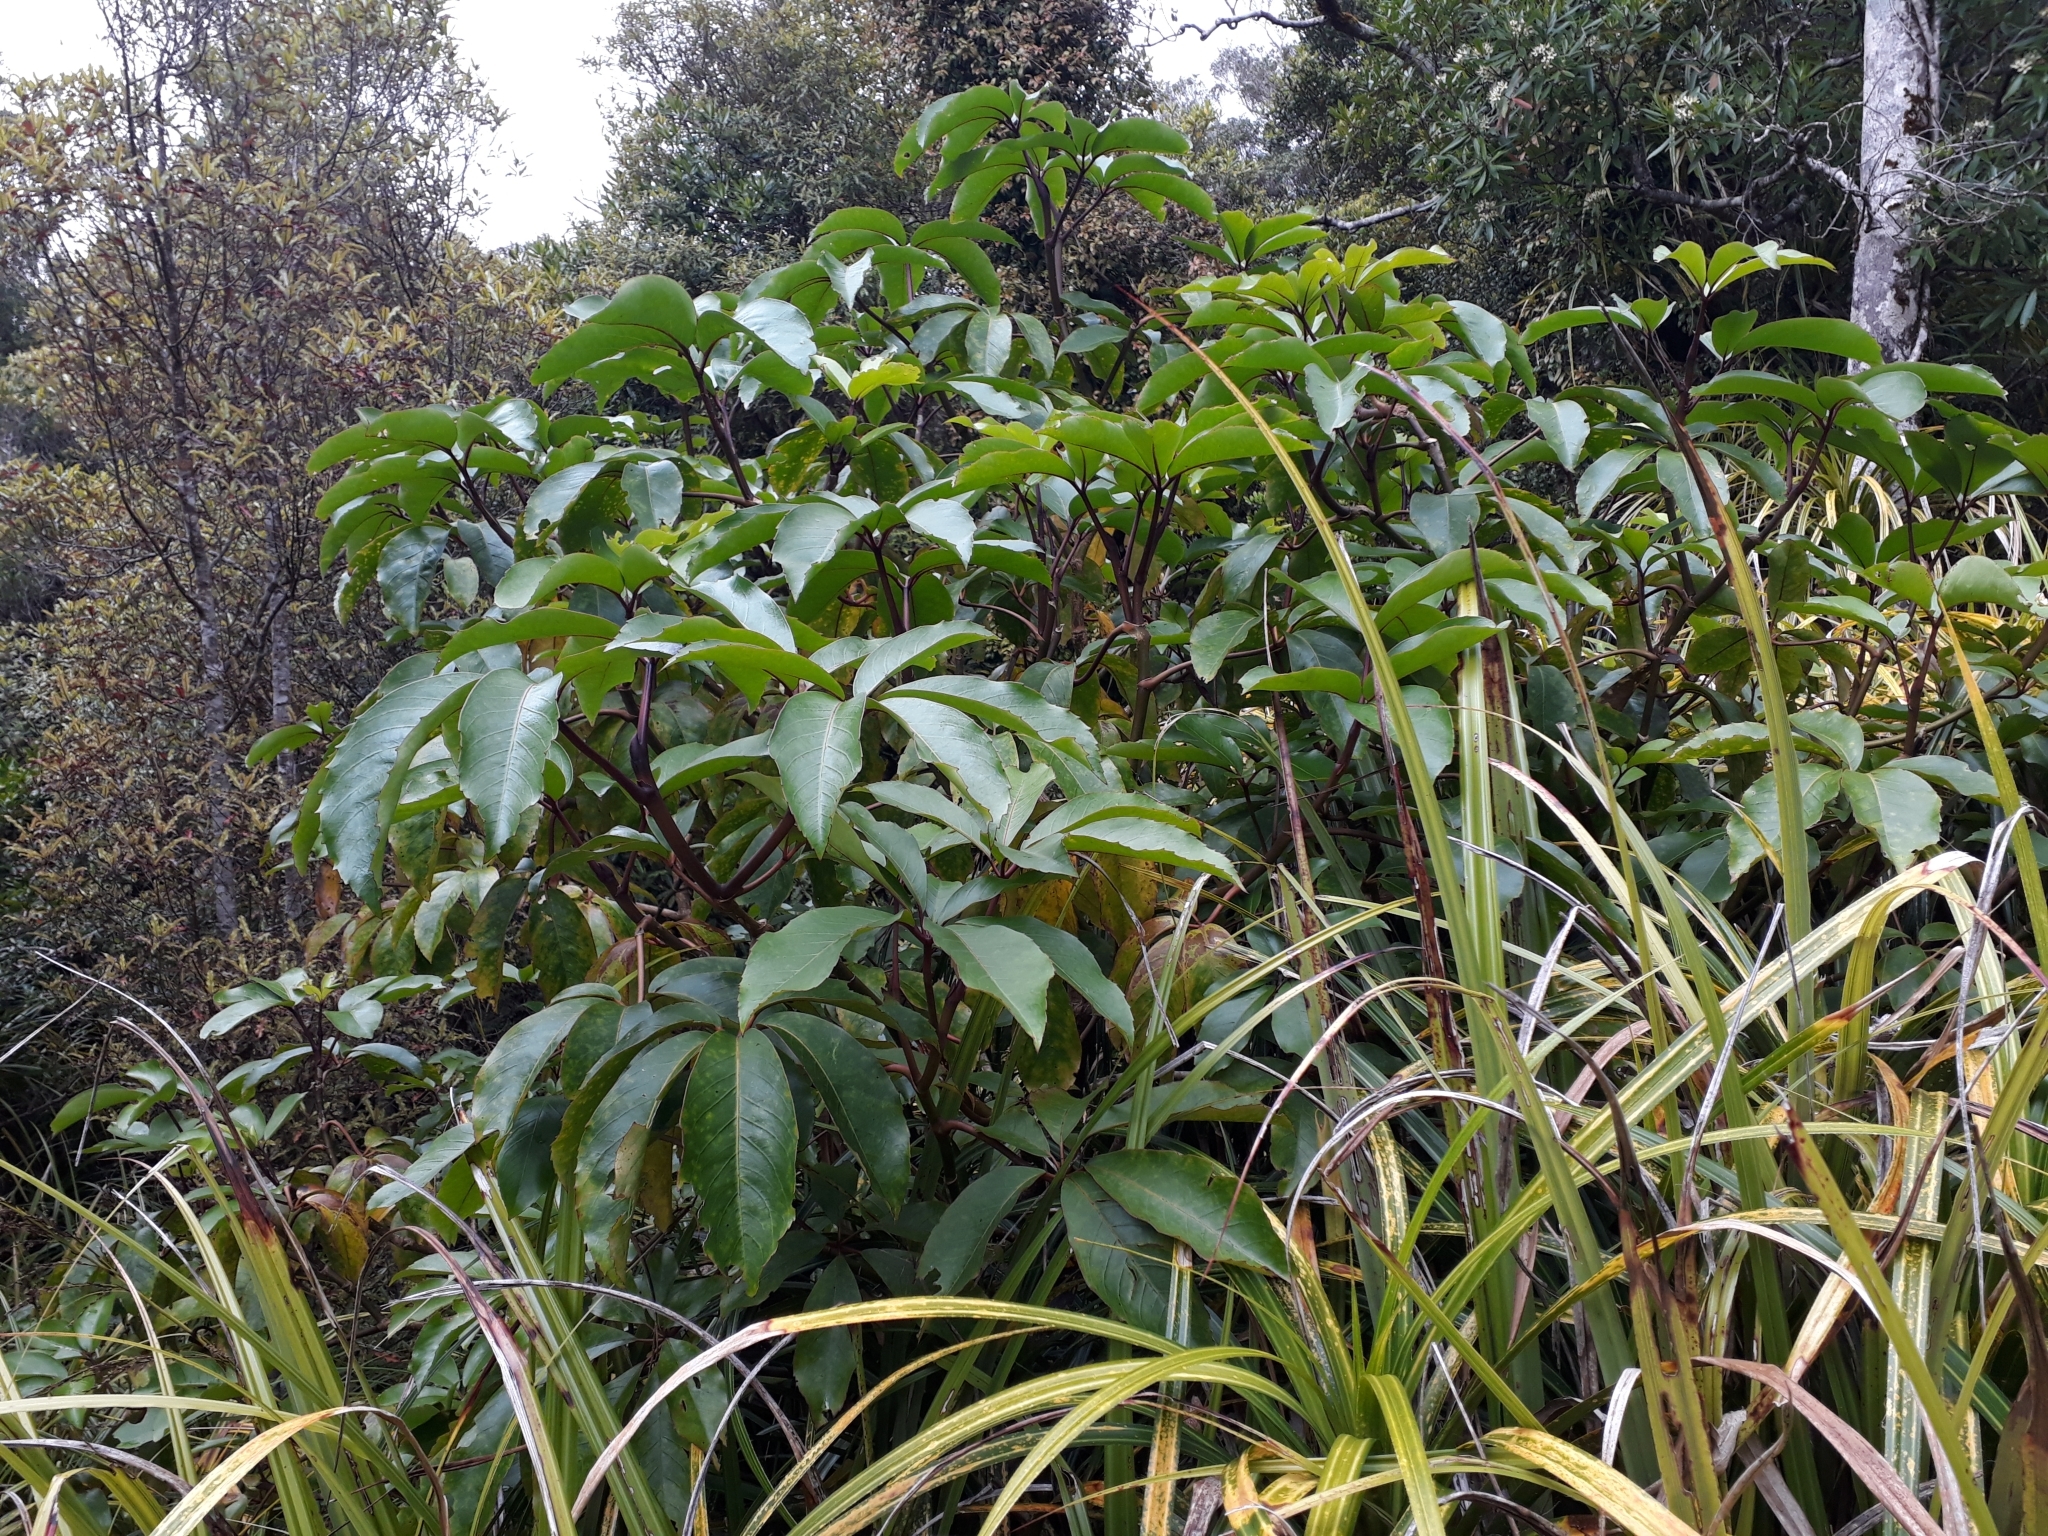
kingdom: Plantae
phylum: Tracheophyta
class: Magnoliopsida
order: Apiales
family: Araliaceae
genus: Neopanax
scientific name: Neopanax laetus
